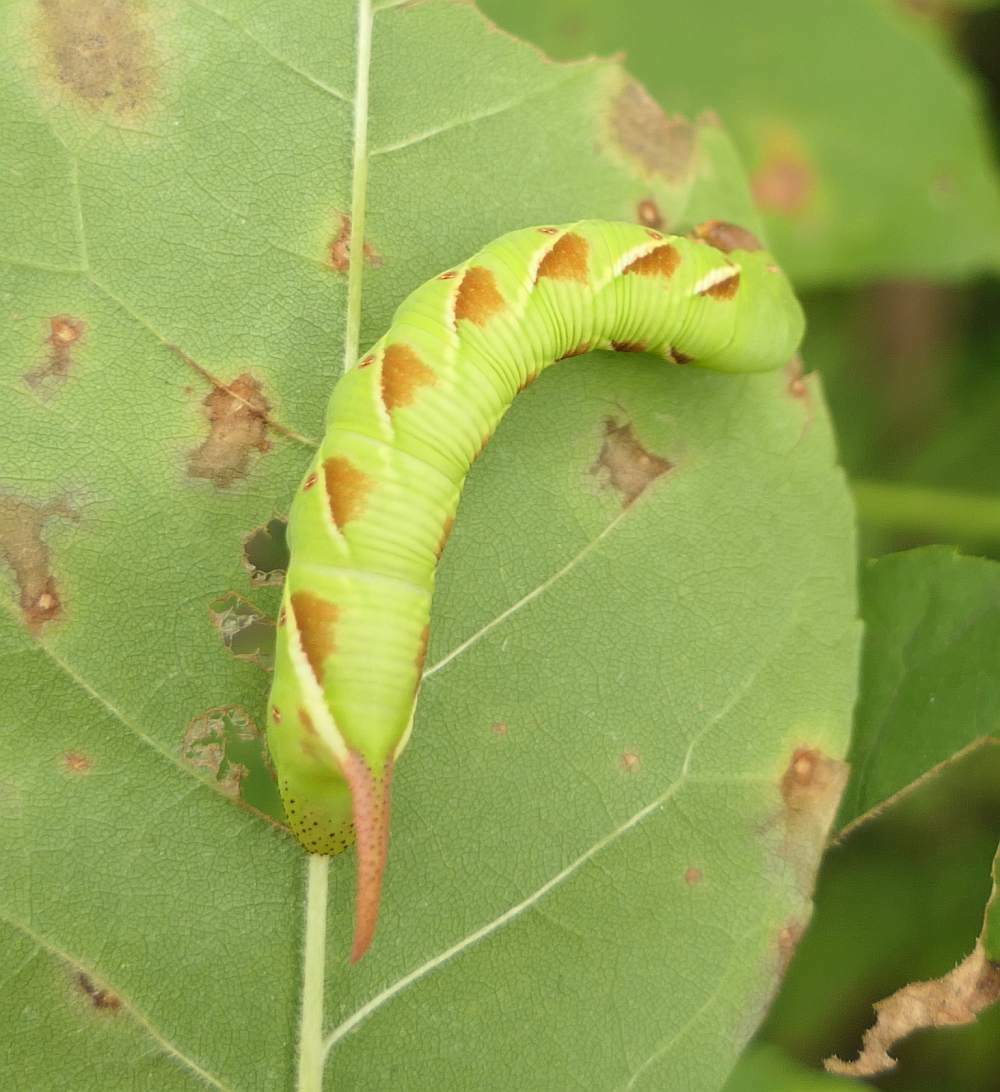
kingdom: Animalia
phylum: Arthropoda
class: Insecta
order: Lepidoptera
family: Sphingidae
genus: Ceratomia
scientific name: Ceratomia undulosa
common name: Waved sphinx
